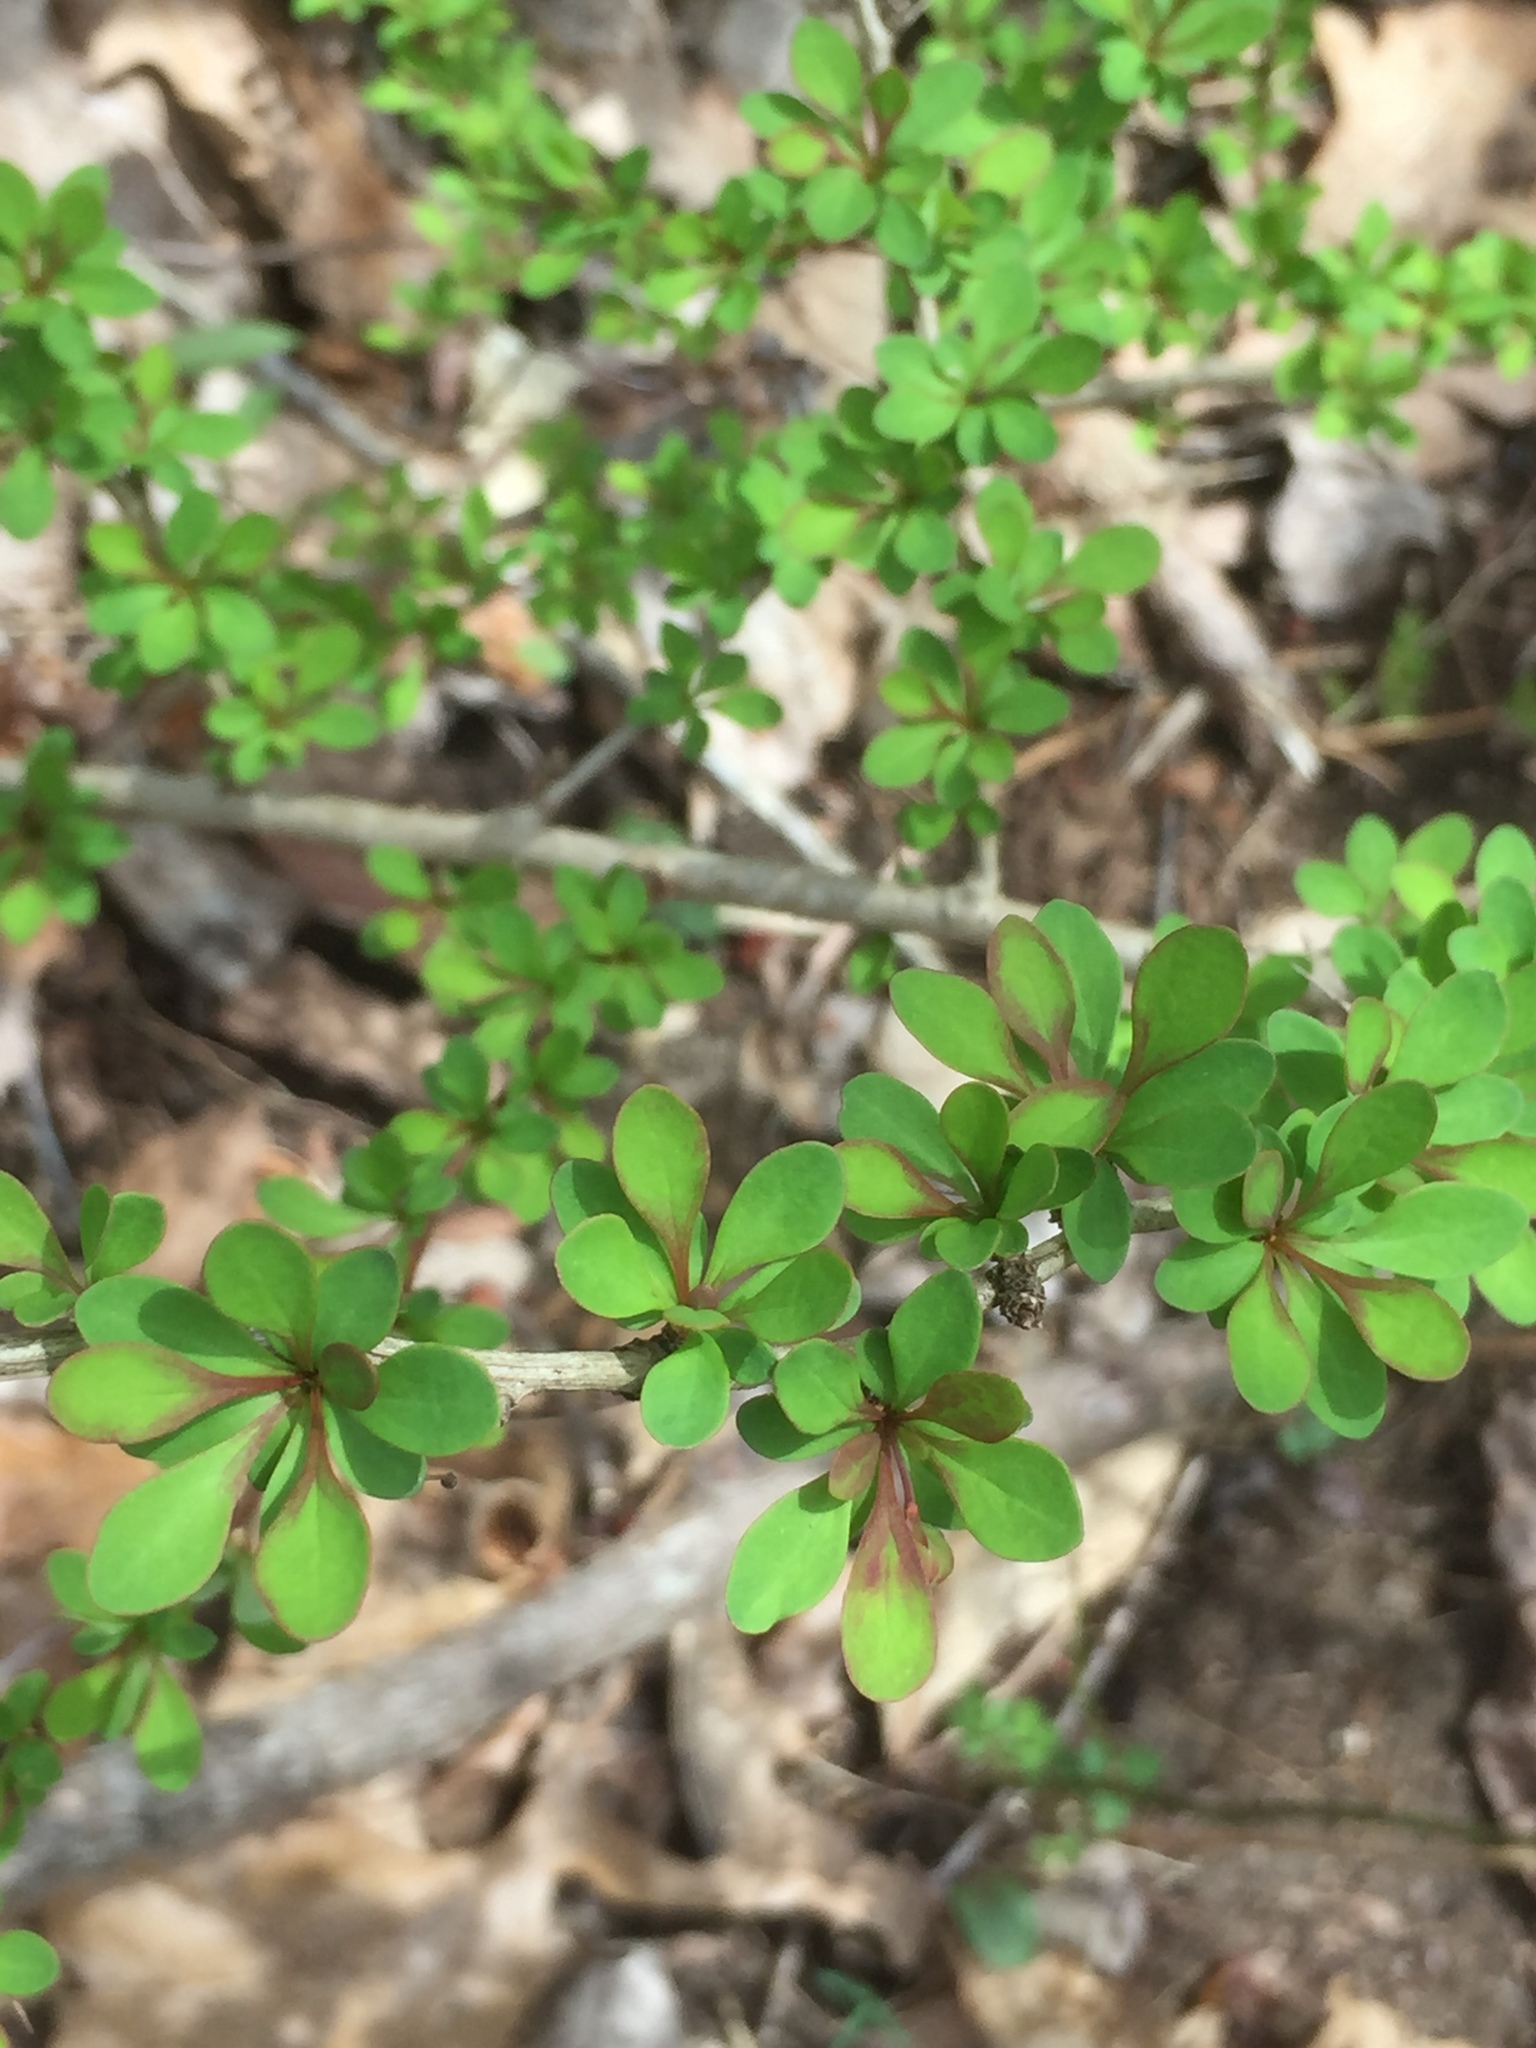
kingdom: Plantae
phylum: Tracheophyta
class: Magnoliopsida
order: Ranunculales
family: Berberidaceae
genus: Berberis
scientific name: Berberis thunbergii
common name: Japanese barberry
